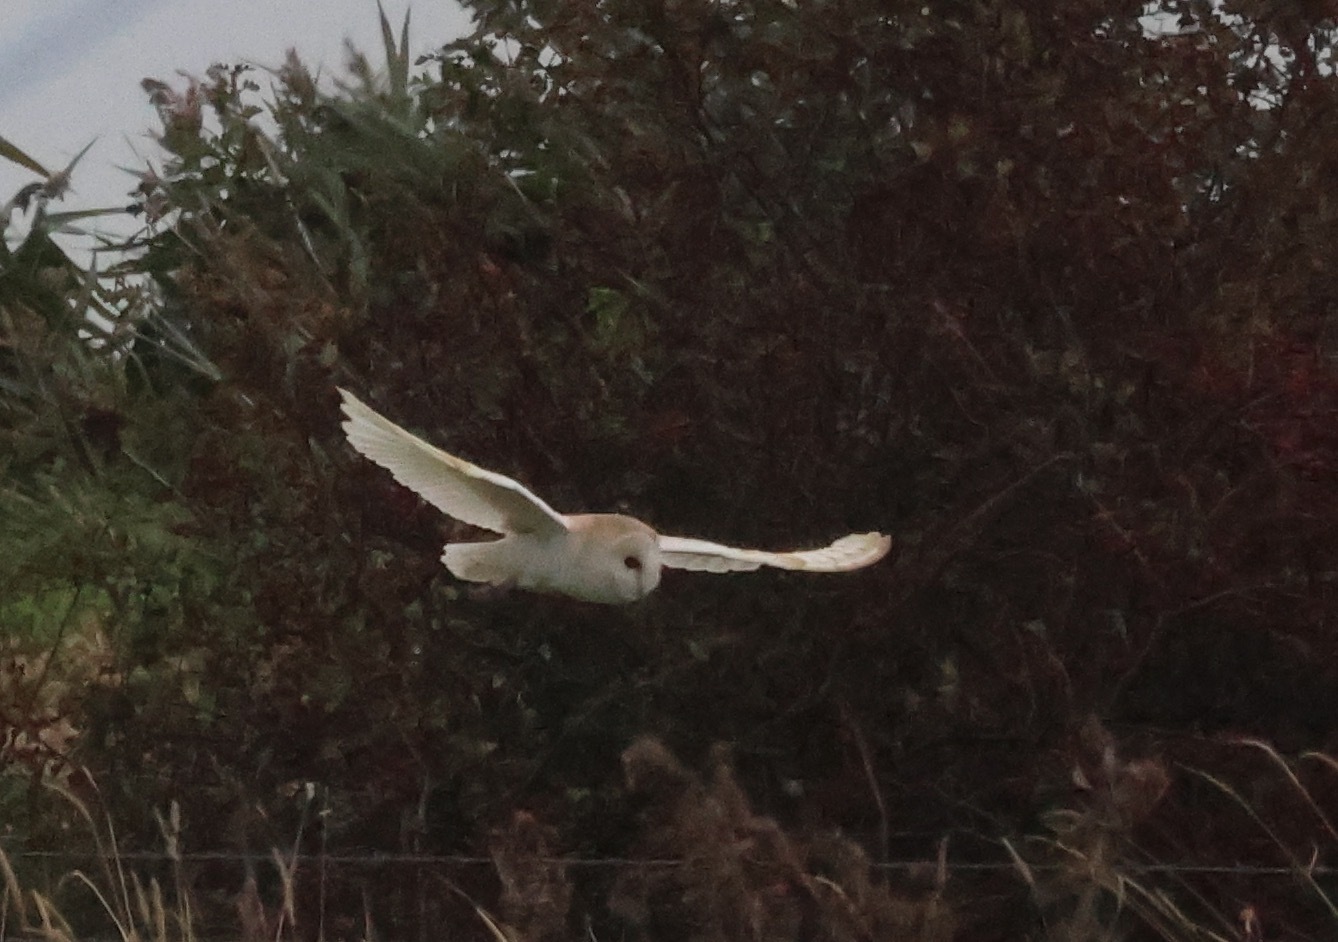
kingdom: Animalia
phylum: Chordata
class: Aves
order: Strigiformes
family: Tytonidae
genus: Tyto
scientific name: Tyto alba
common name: Barn owl
